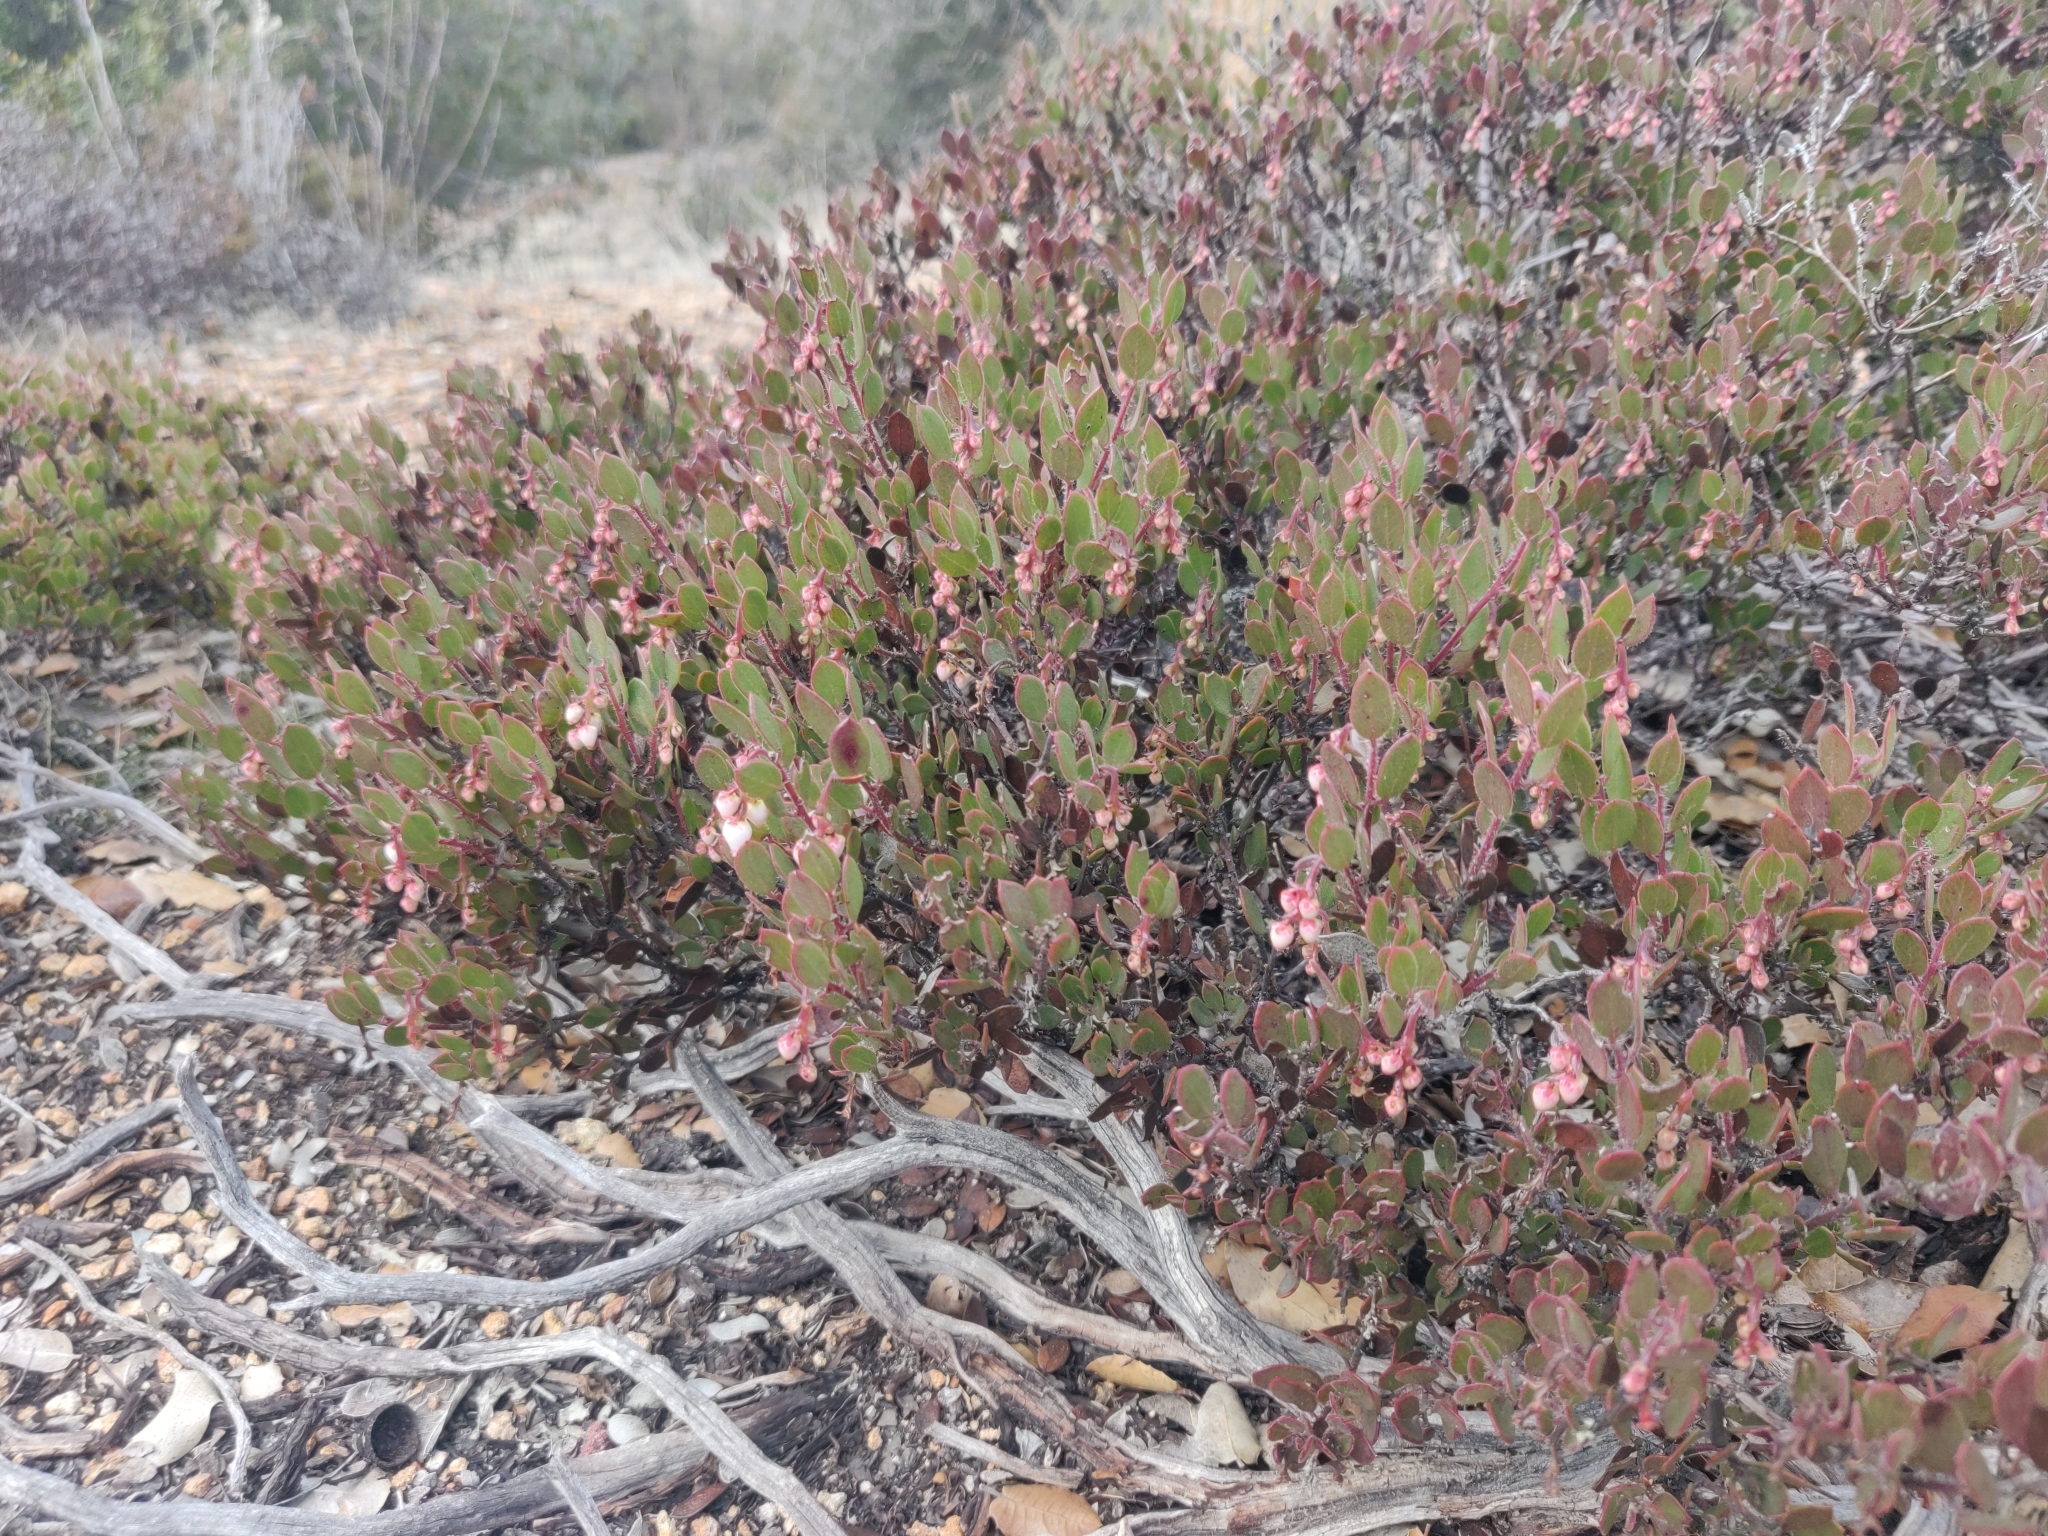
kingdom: Plantae
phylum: Tracheophyta
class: Magnoliopsida
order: Ericales
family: Ericaceae
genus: Arctostaphylos
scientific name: Arctostaphylos myrtifolia
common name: Ione manzanita
